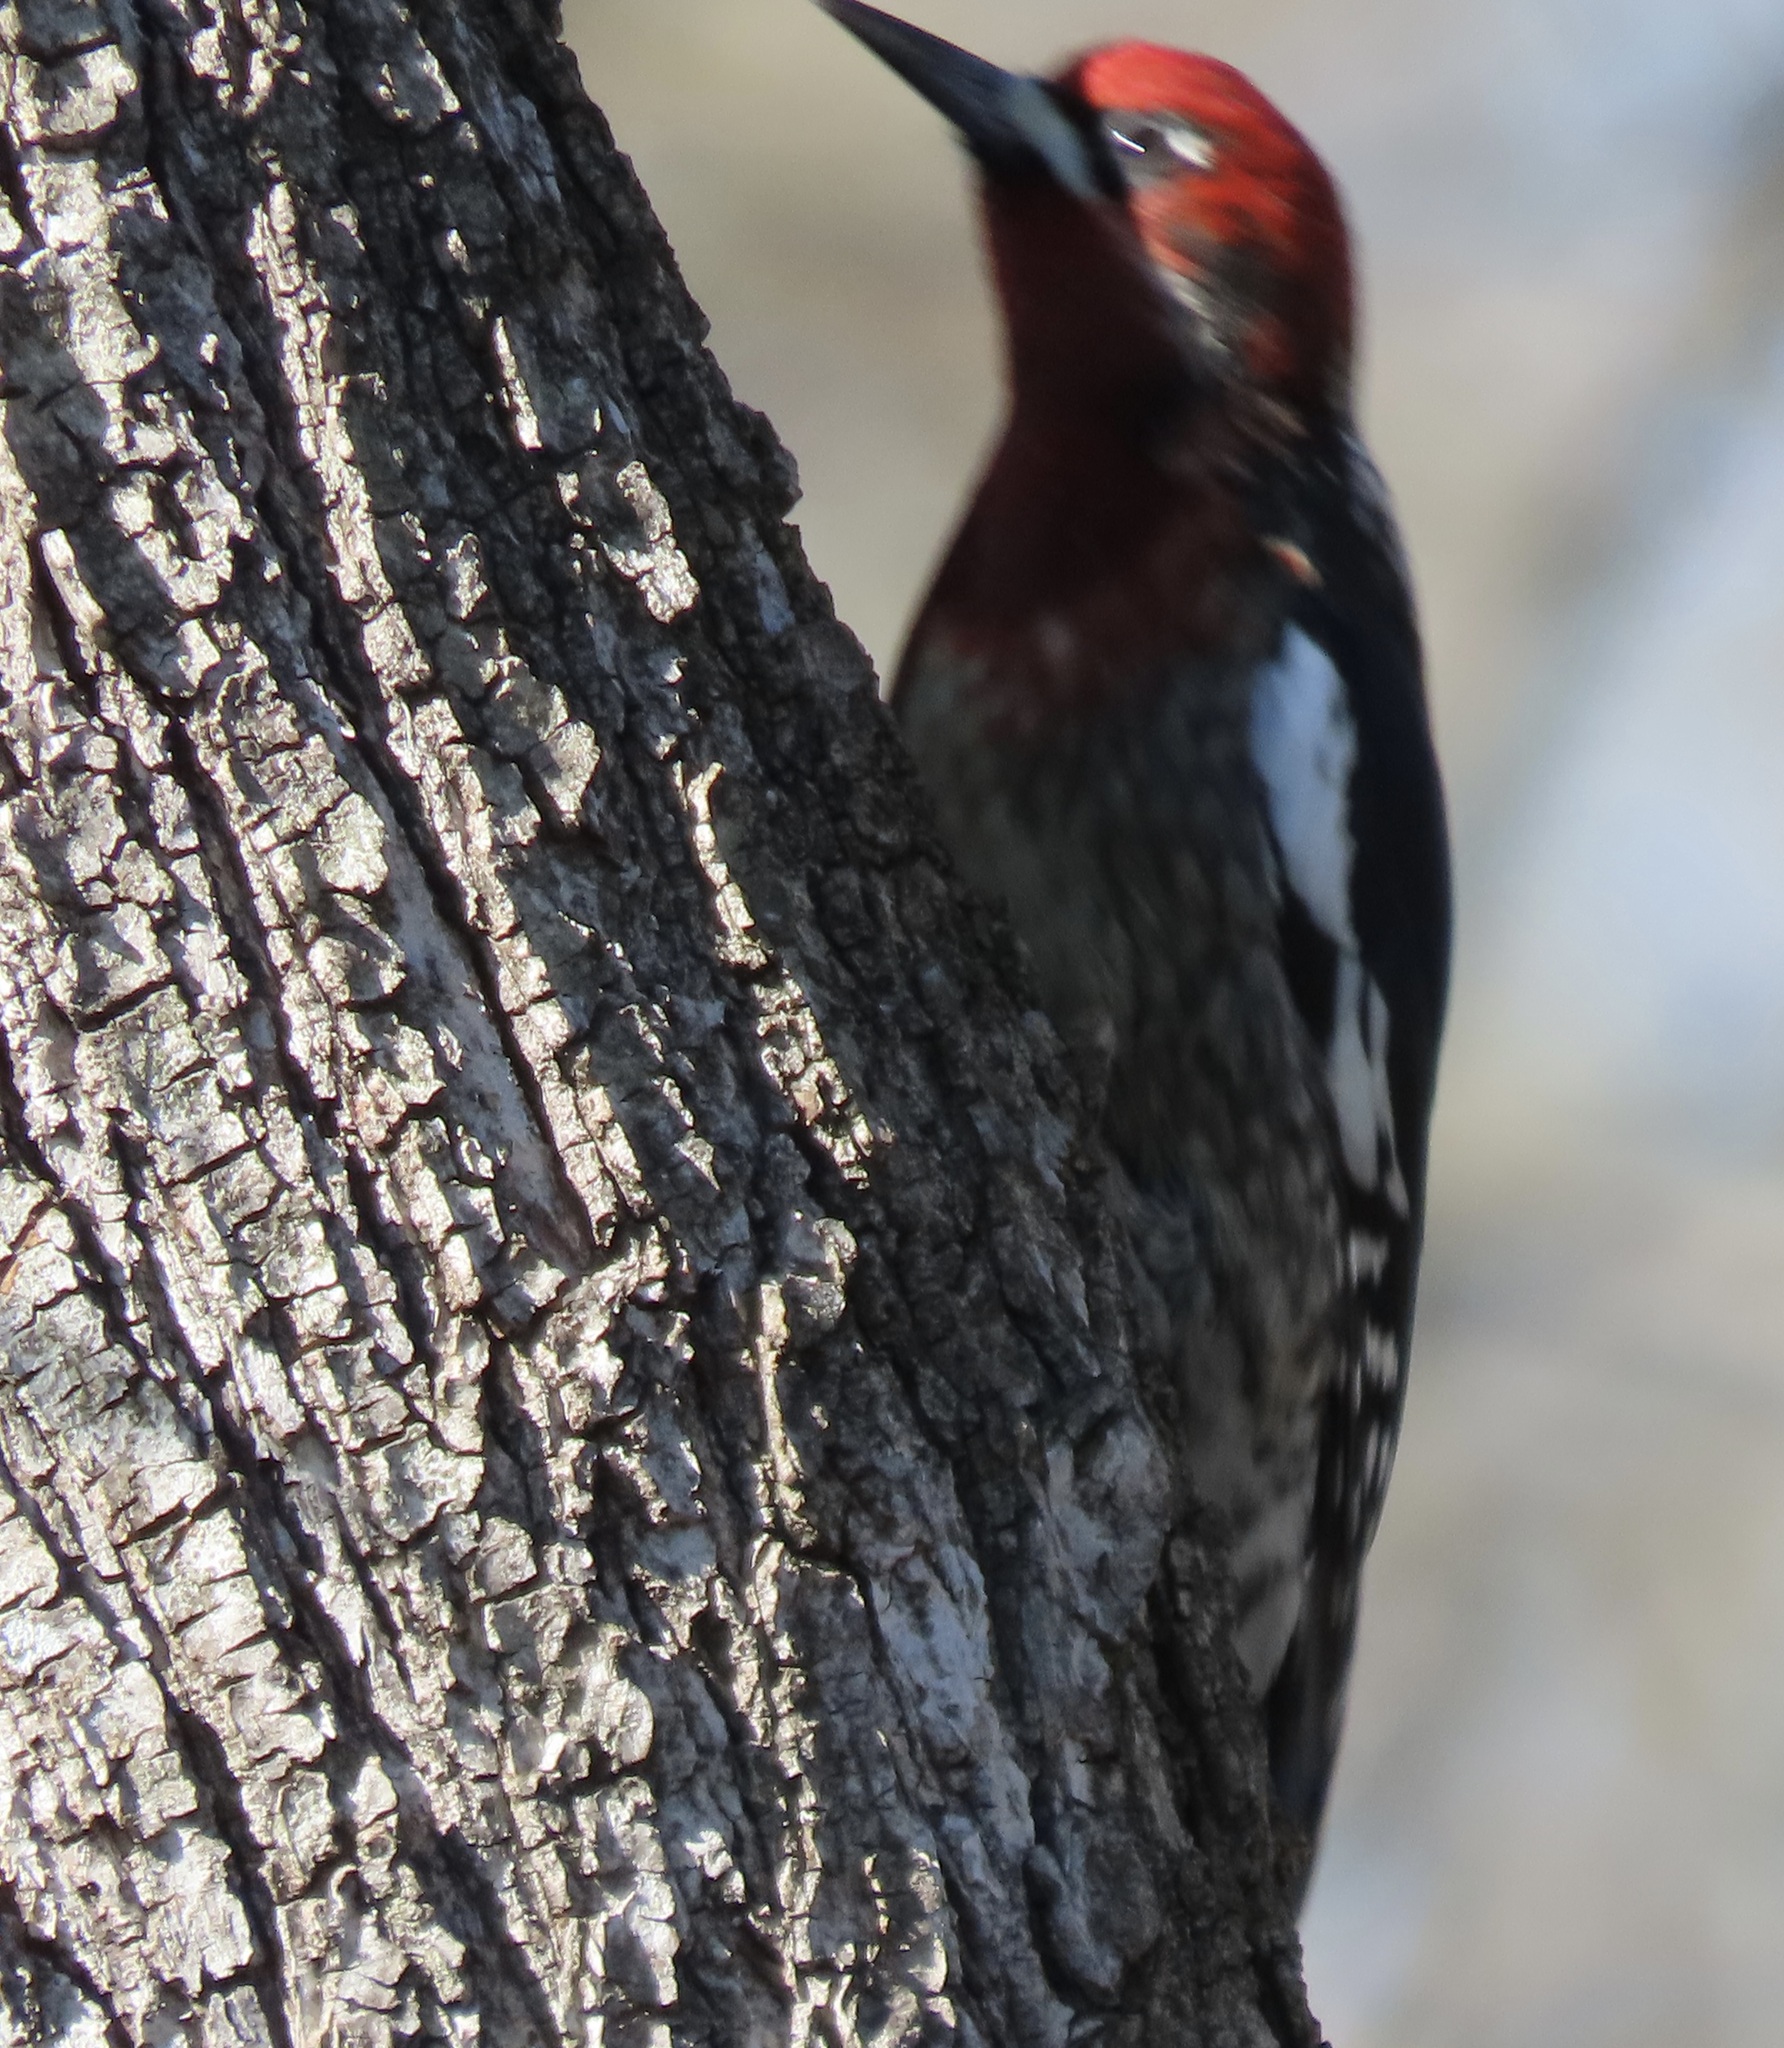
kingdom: Animalia
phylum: Chordata
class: Aves
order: Piciformes
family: Picidae
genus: Sphyrapicus
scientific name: Sphyrapicus ruber
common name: Red-breasted sapsucker
